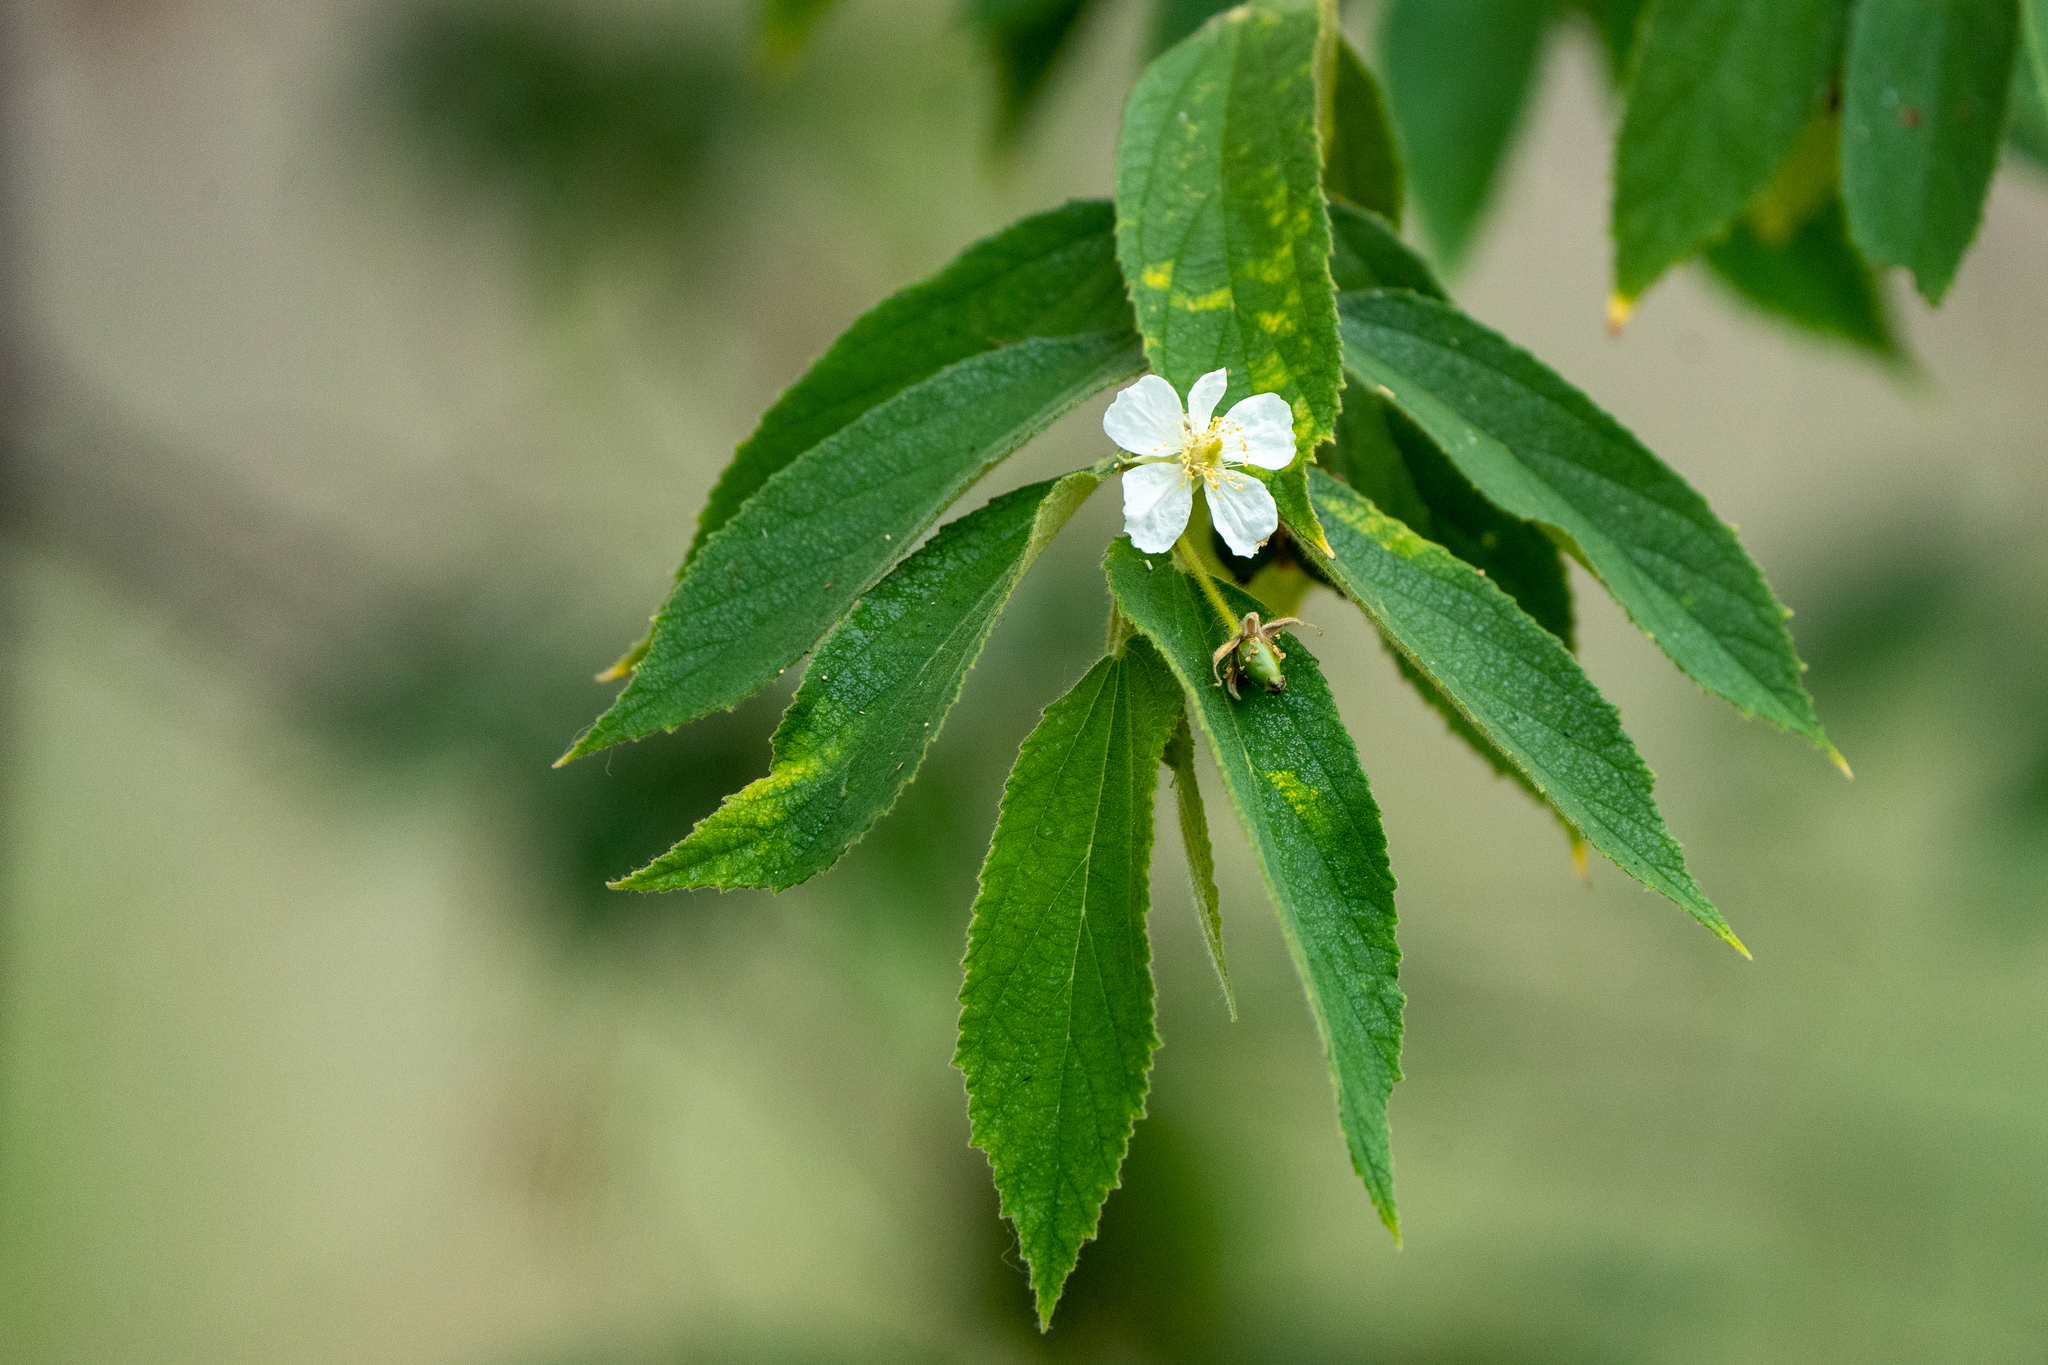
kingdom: Plantae
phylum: Tracheophyta
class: Magnoliopsida
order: Malvales
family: Muntingiaceae
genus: Muntingia
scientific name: Muntingia calabura
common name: Strawberrytree
